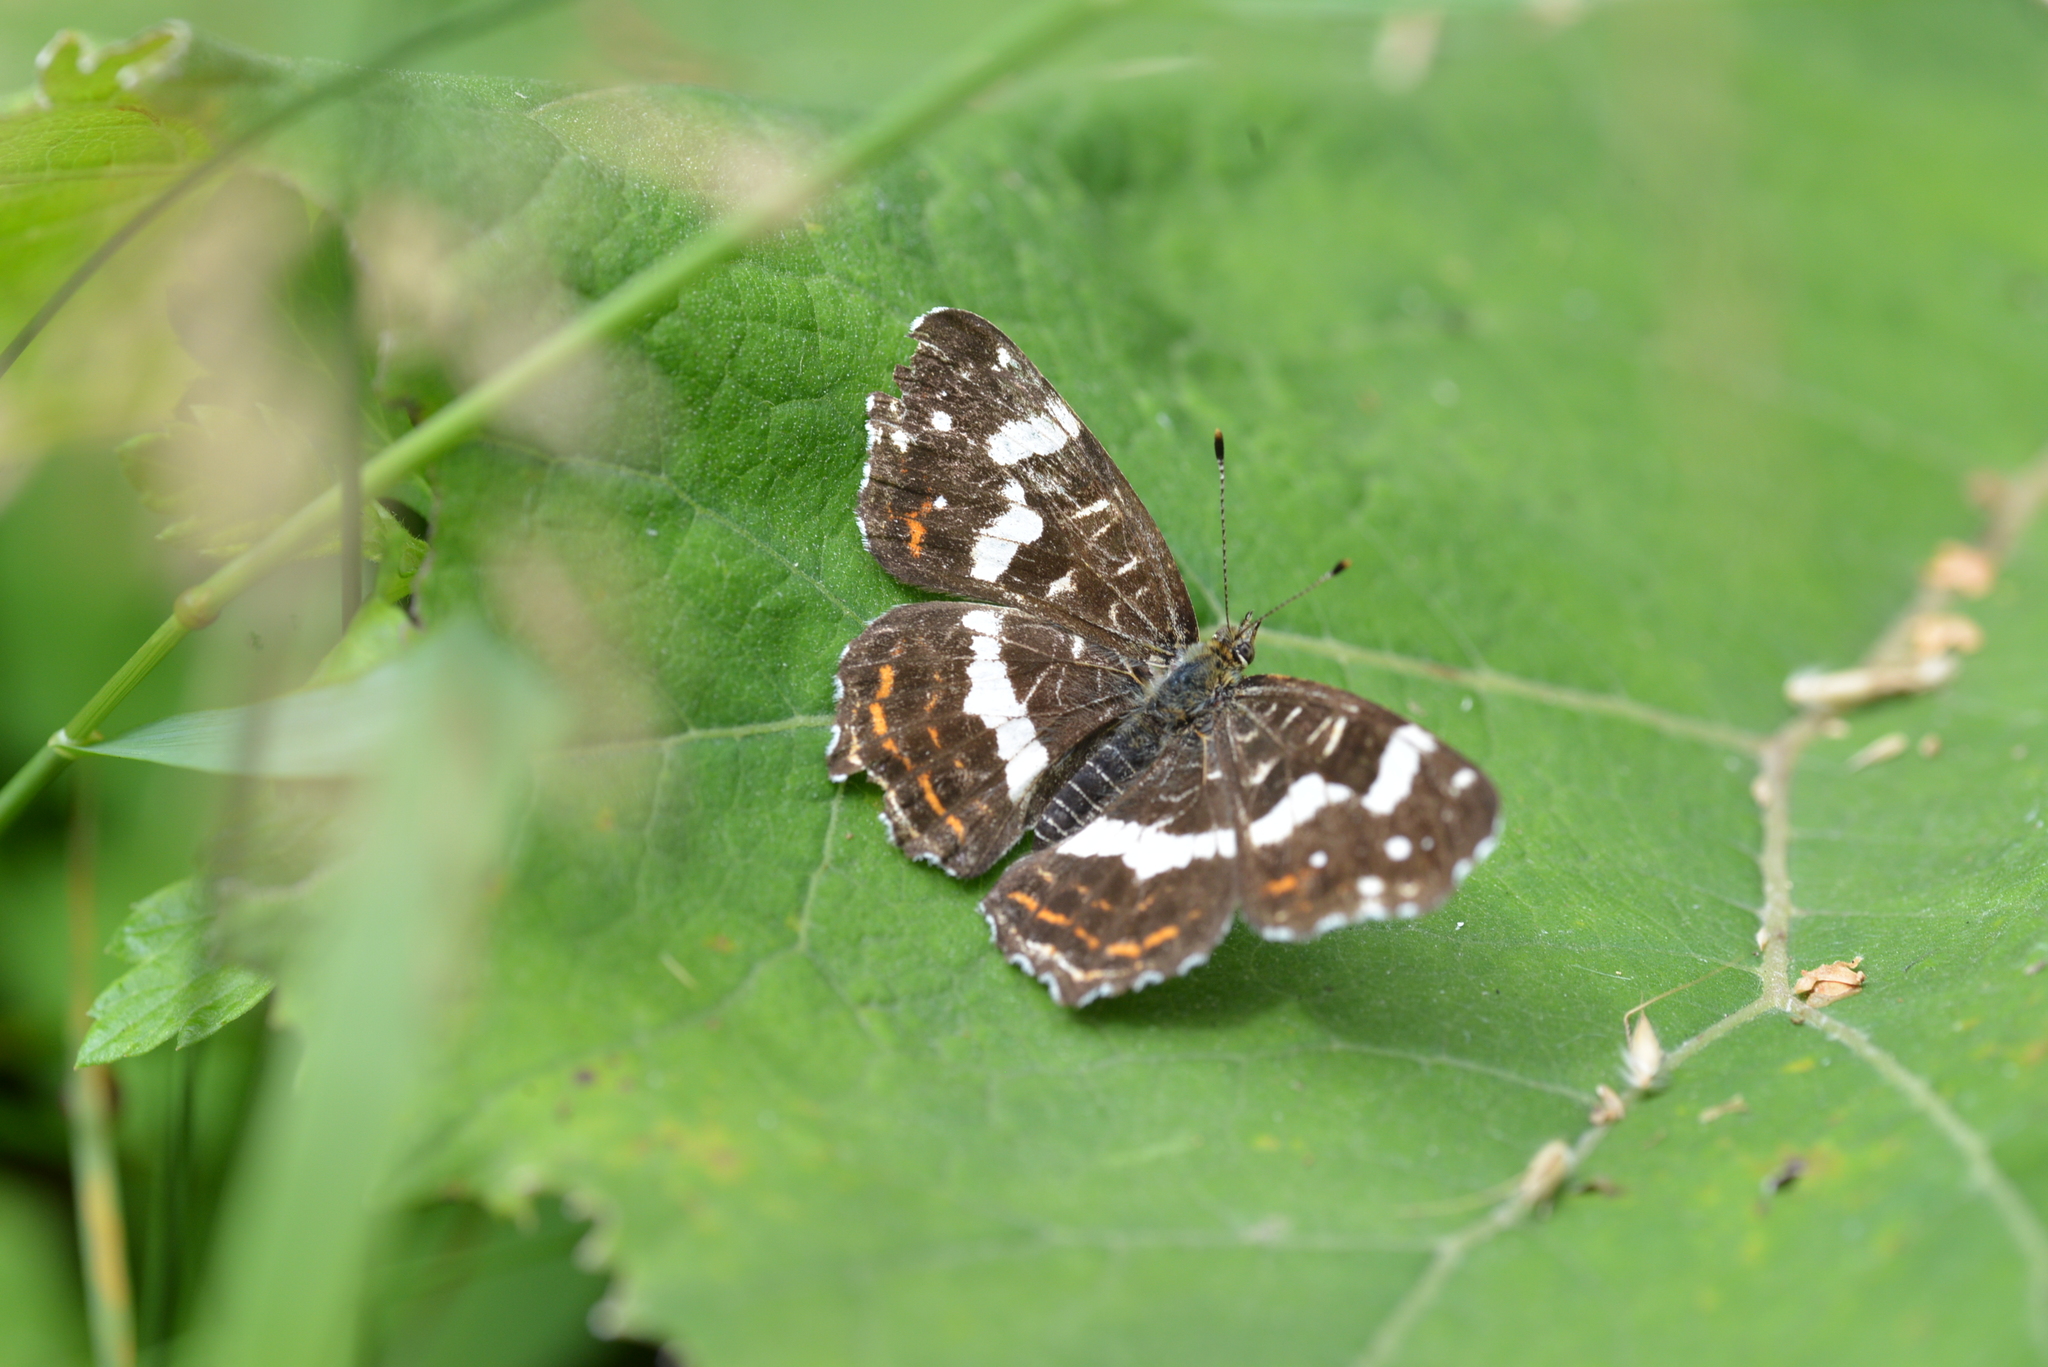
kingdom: Animalia
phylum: Arthropoda
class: Insecta
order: Lepidoptera
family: Nymphalidae
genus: Araschnia
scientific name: Araschnia levana
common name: Map butterfly
